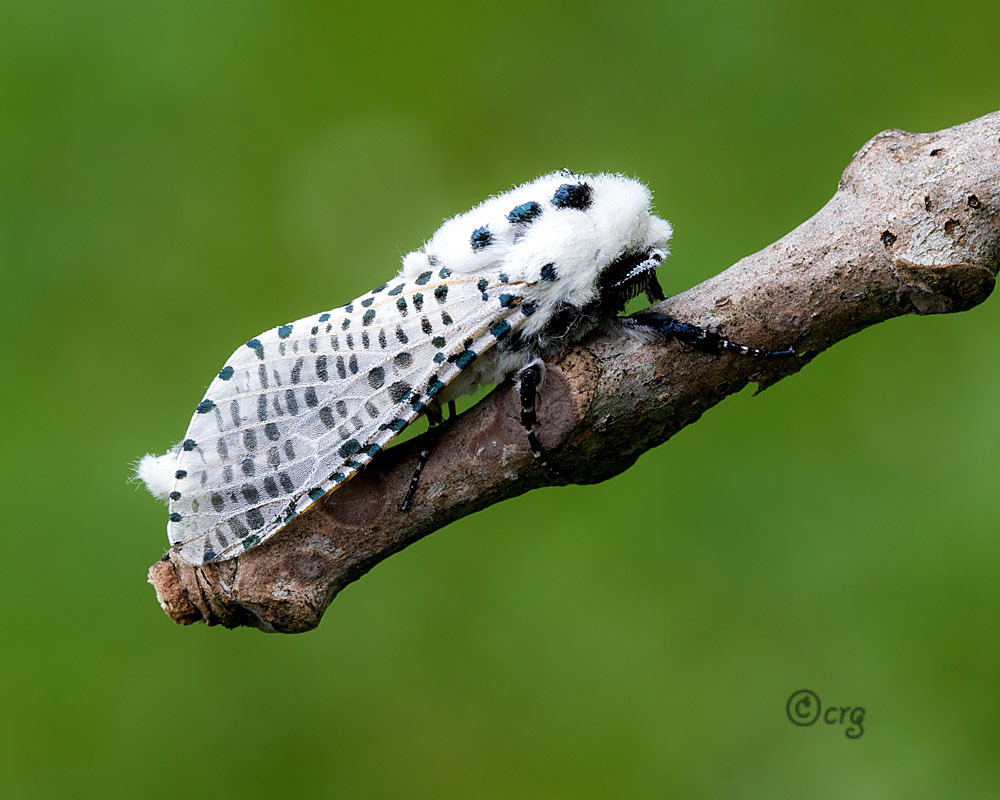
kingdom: Animalia
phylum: Arthropoda
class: Insecta
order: Lepidoptera
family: Cossidae
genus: Zeuzera
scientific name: Zeuzera pyrina
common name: Leopard moth
